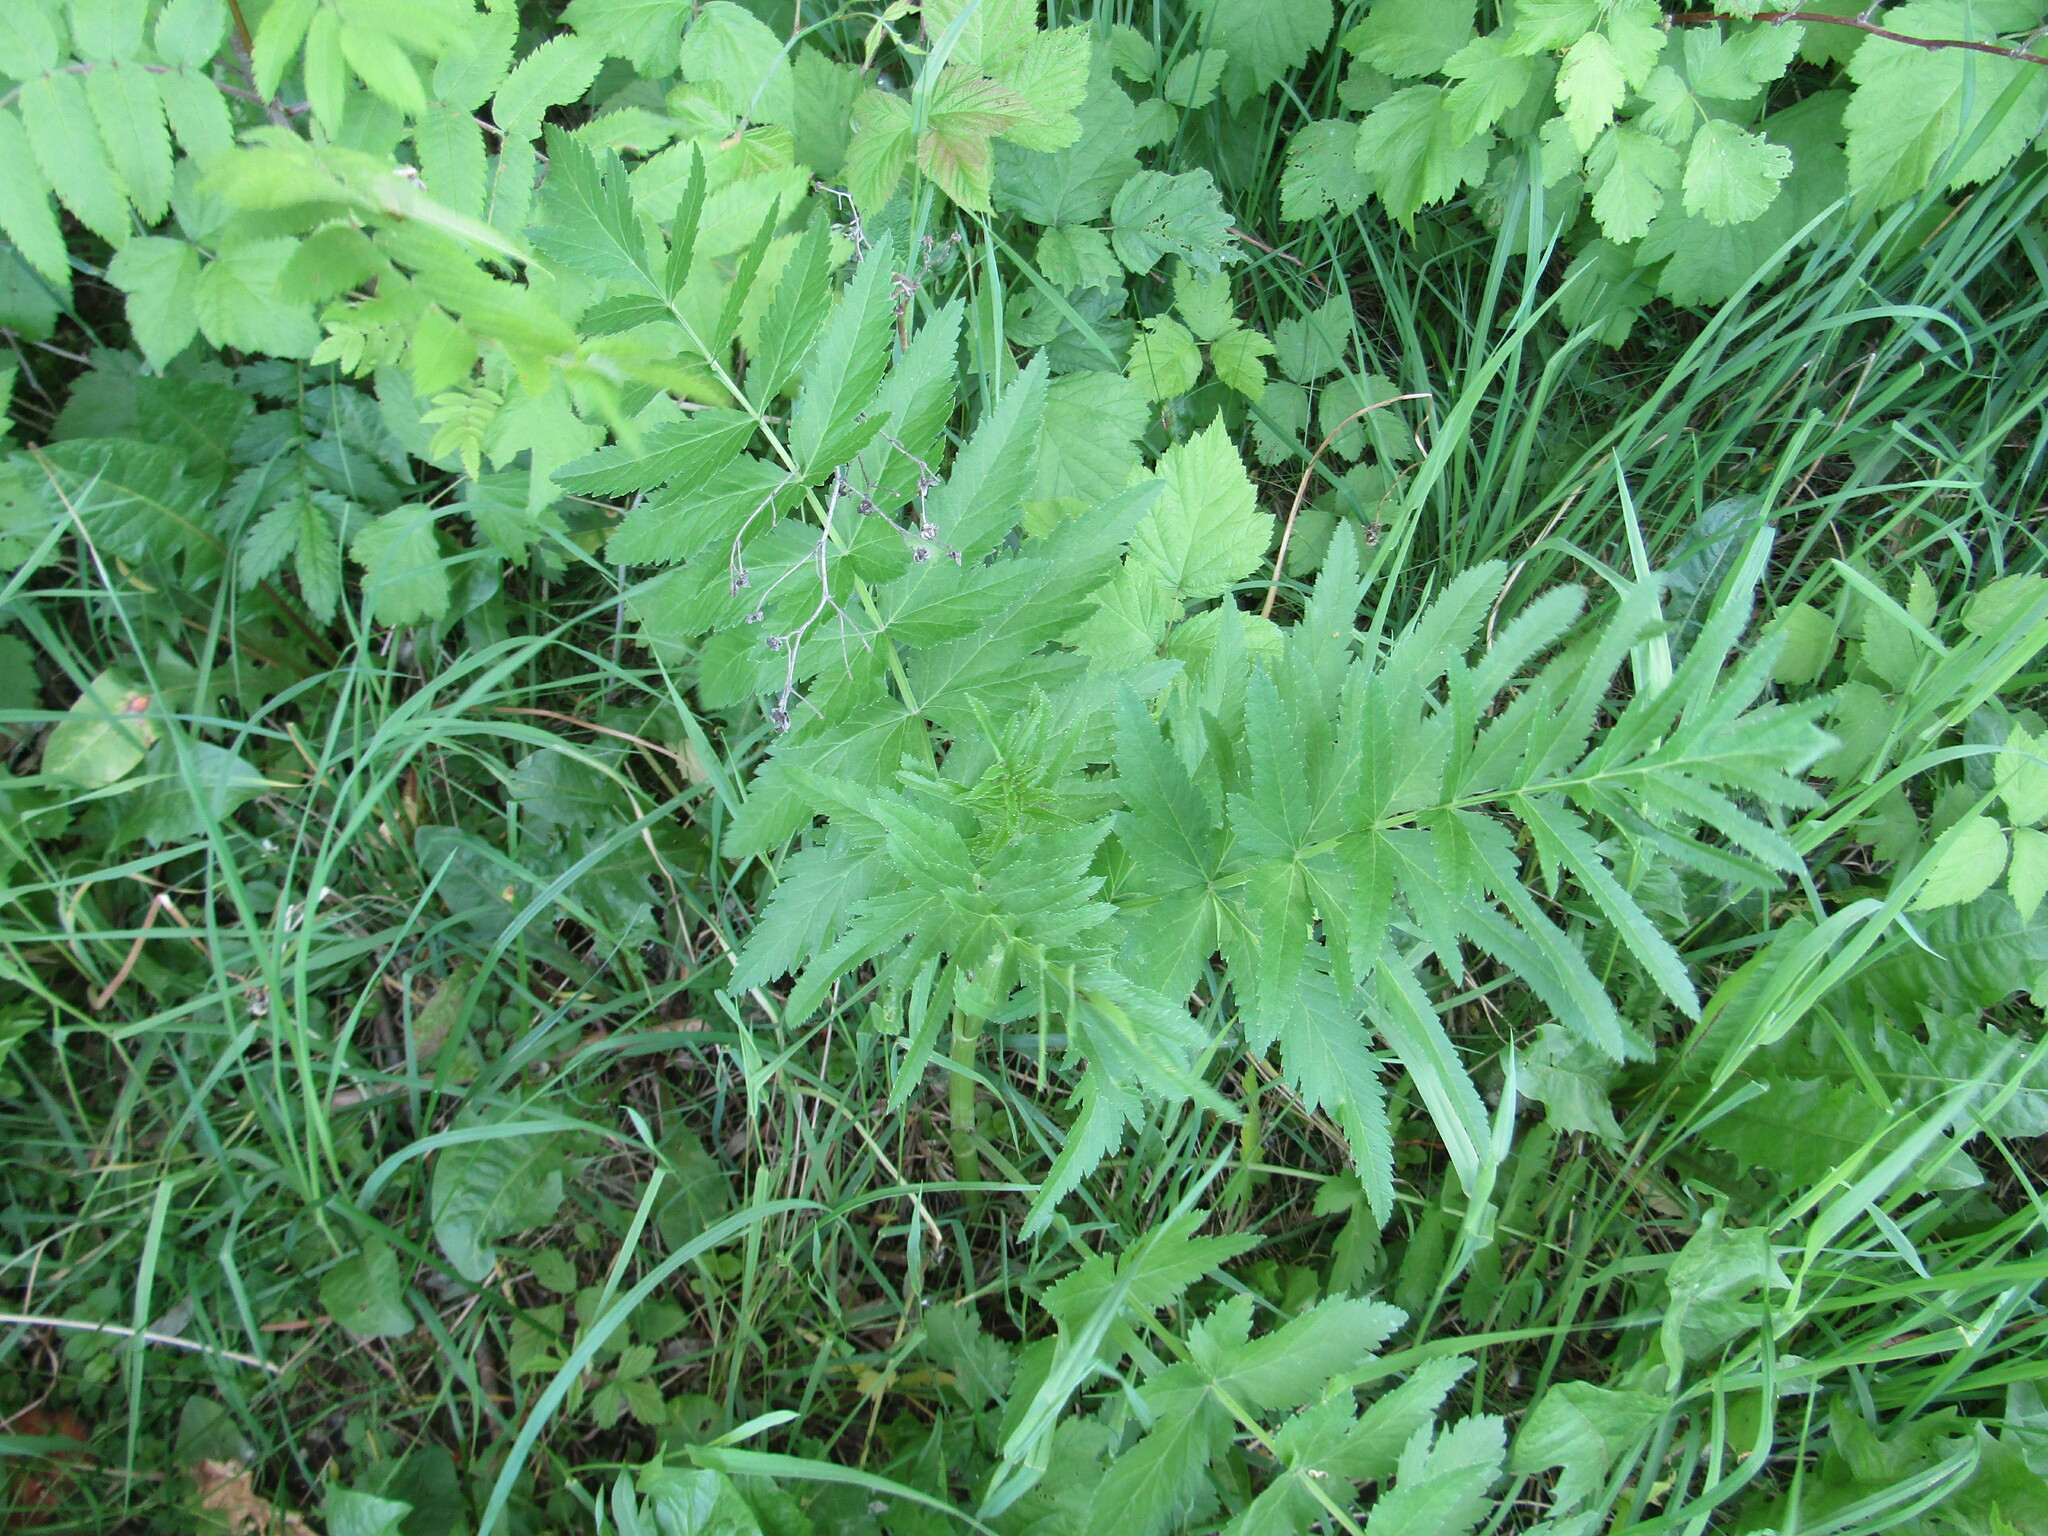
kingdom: Plantae
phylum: Tracheophyta
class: Magnoliopsida
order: Apiales
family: Apiaceae
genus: Pastinaca
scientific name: Pastinaca sativa
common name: Wild parsnip
